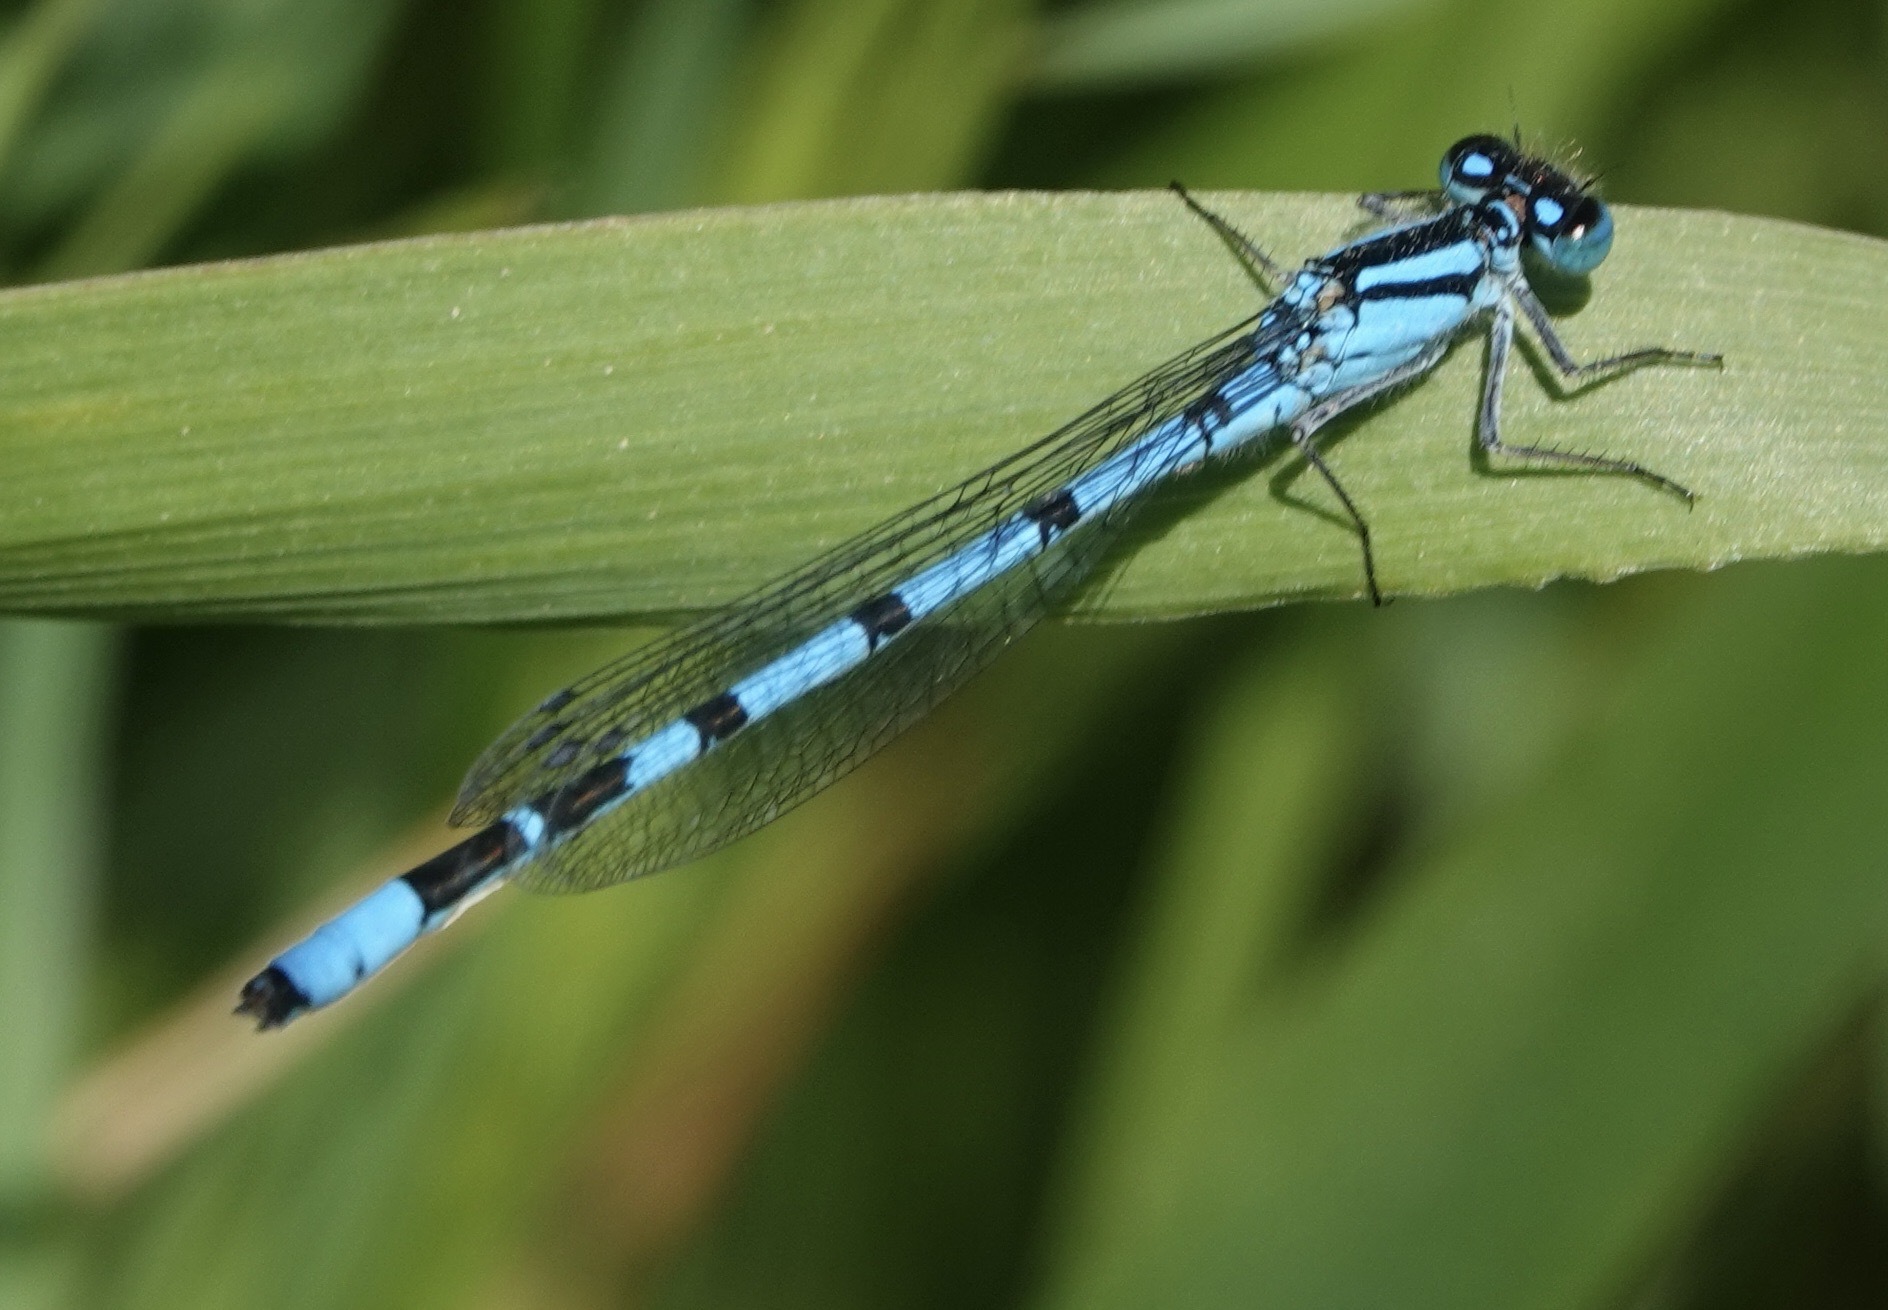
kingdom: Animalia
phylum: Arthropoda
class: Insecta
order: Odonata
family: Coenagrionidae
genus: Enallagma
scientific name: Enallagma cyathigerum
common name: Common blue damselfly
